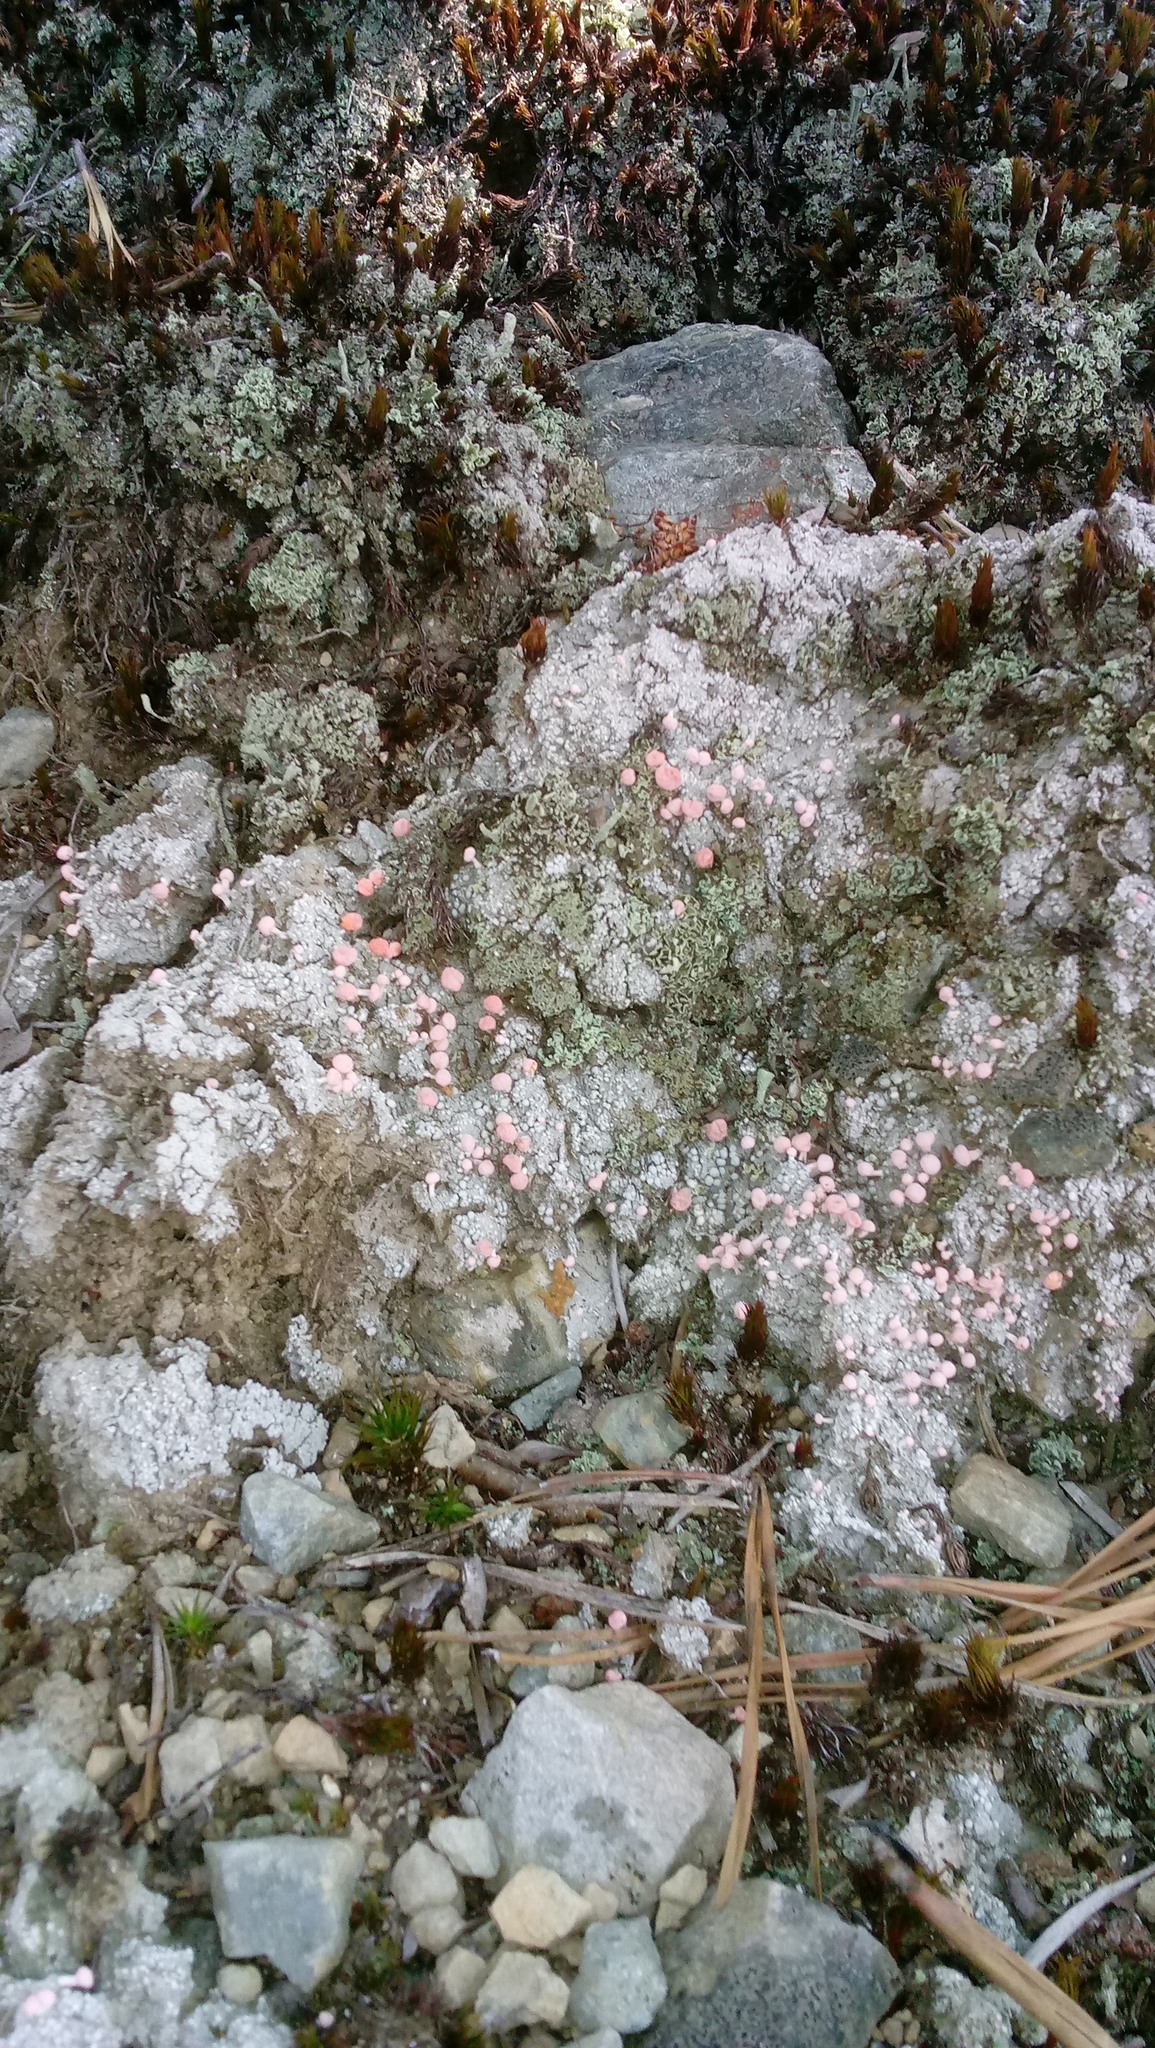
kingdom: Fungi
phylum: Ascomycota
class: Lecanoromycetes
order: Pertusariales
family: Icmadophilaceae
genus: Dibaeis
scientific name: Dibaeis baeomyces
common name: Pink earth lichen
